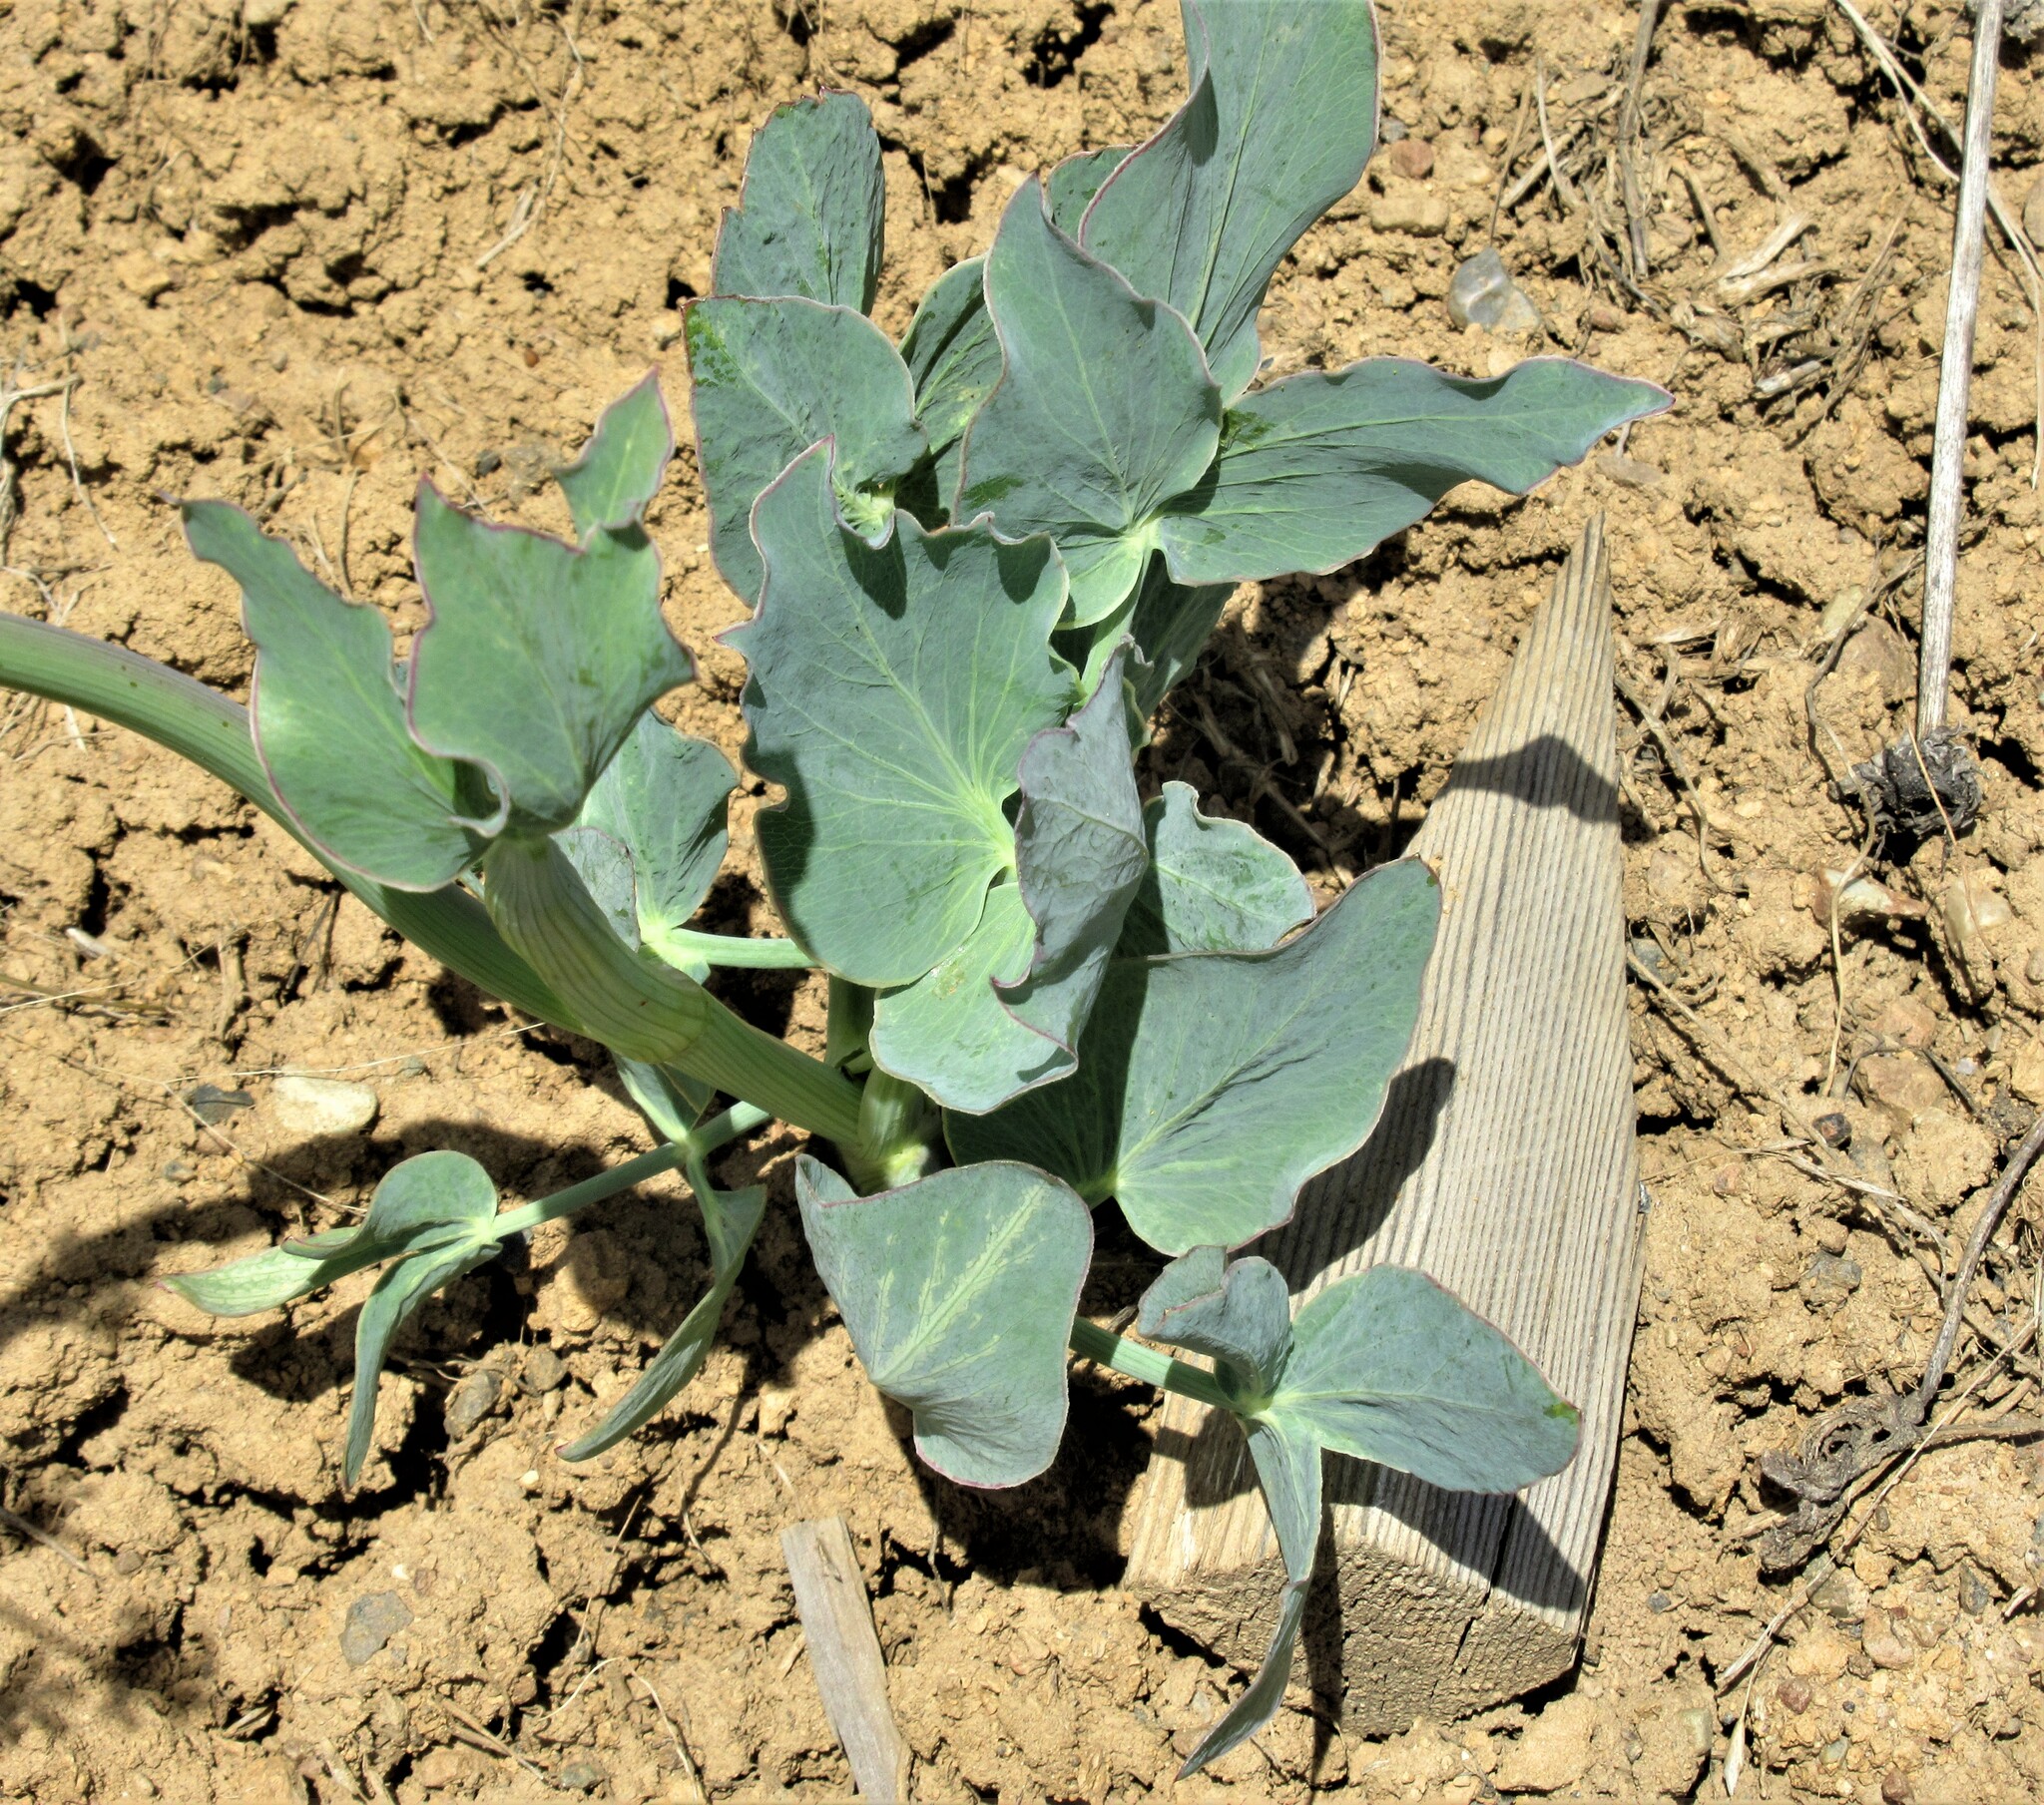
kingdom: Plantae
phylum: Tracheophyta
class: Magnoliopsida
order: Apiales
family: Apiaceae
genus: Lomatium
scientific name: Lomatium nudicaule
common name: Pestle lomatium
